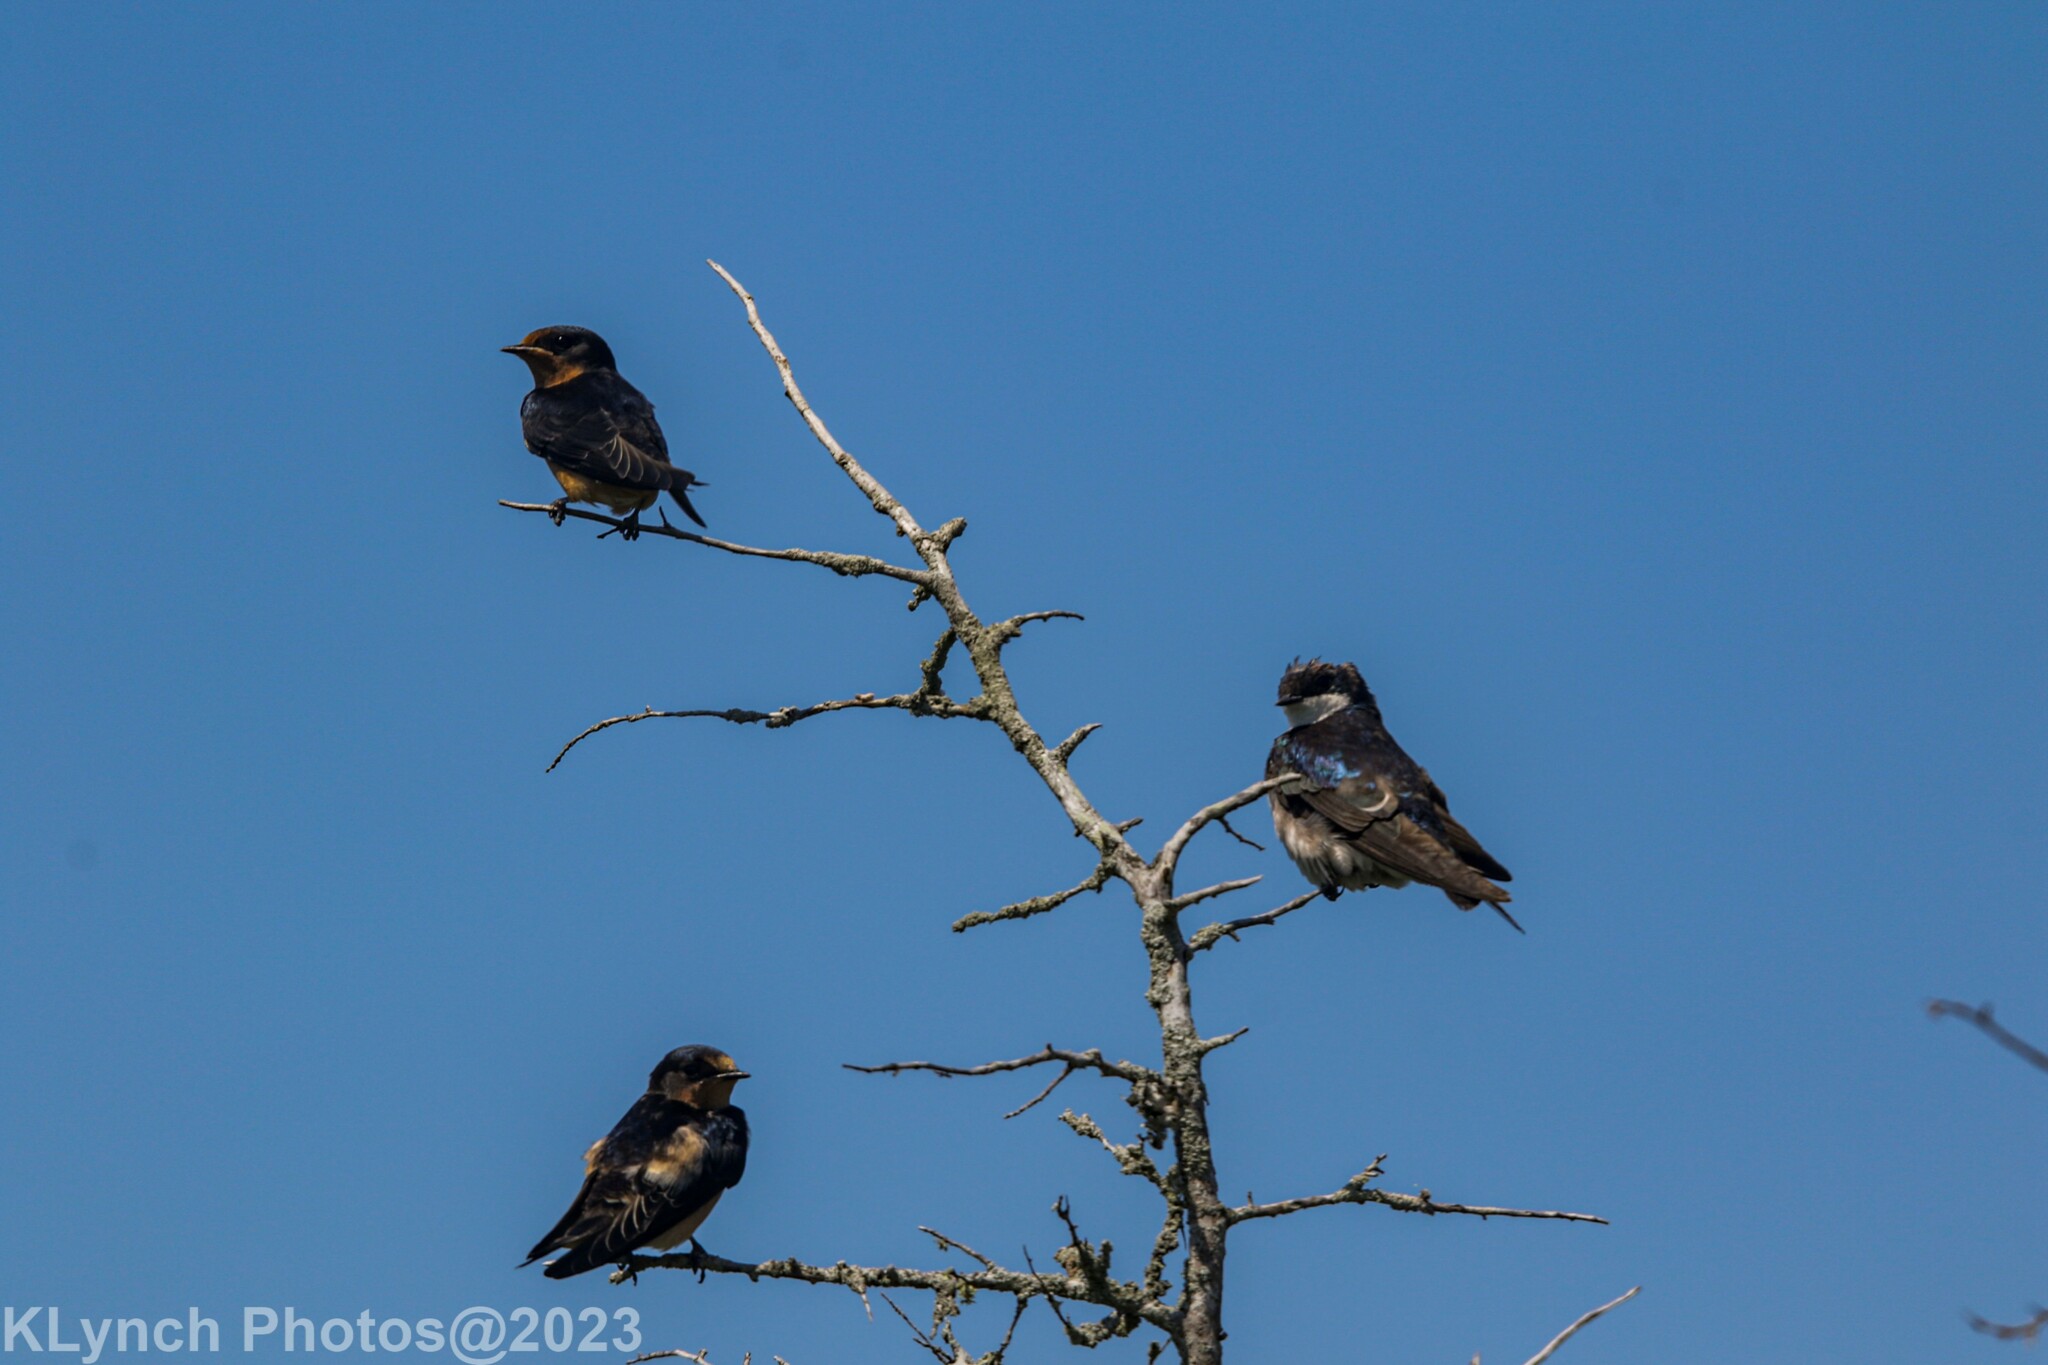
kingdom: Animalia
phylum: Chordata
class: Aves
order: Passeriformes
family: Hirundinidae
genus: Hirundo
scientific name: Hirundo rustica
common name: Barn swallow
